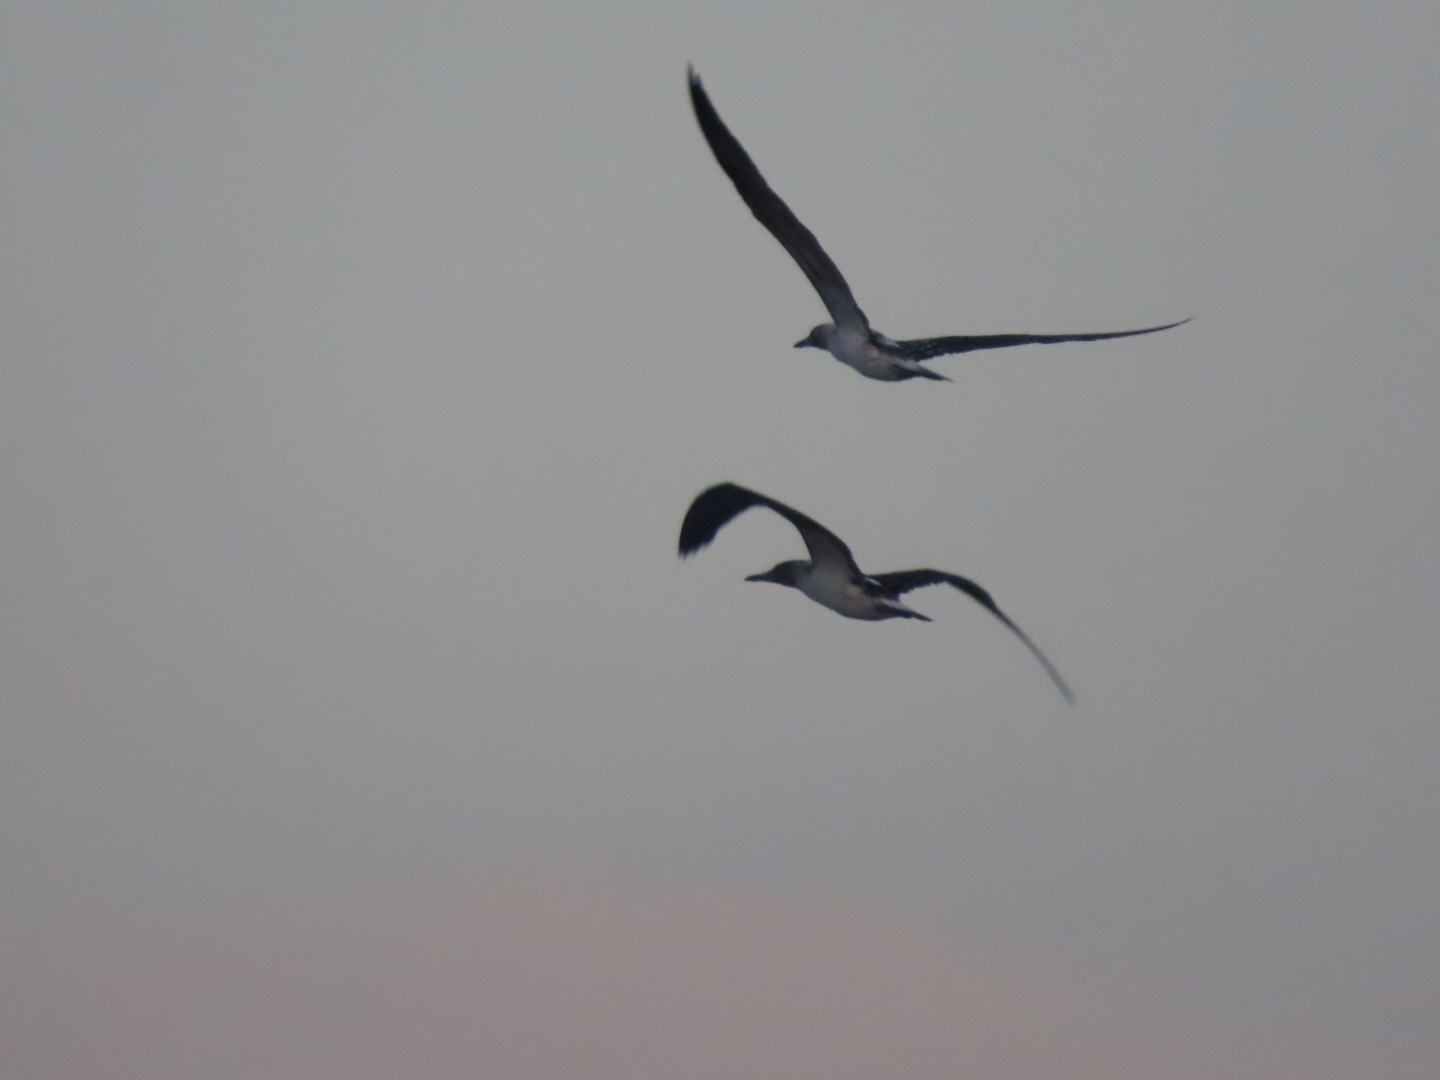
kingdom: Animalia
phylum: Chordata
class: Aves
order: Suliformes
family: Sulidae
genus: Sula
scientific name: Sula nebouxii
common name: Blue-footed booby
